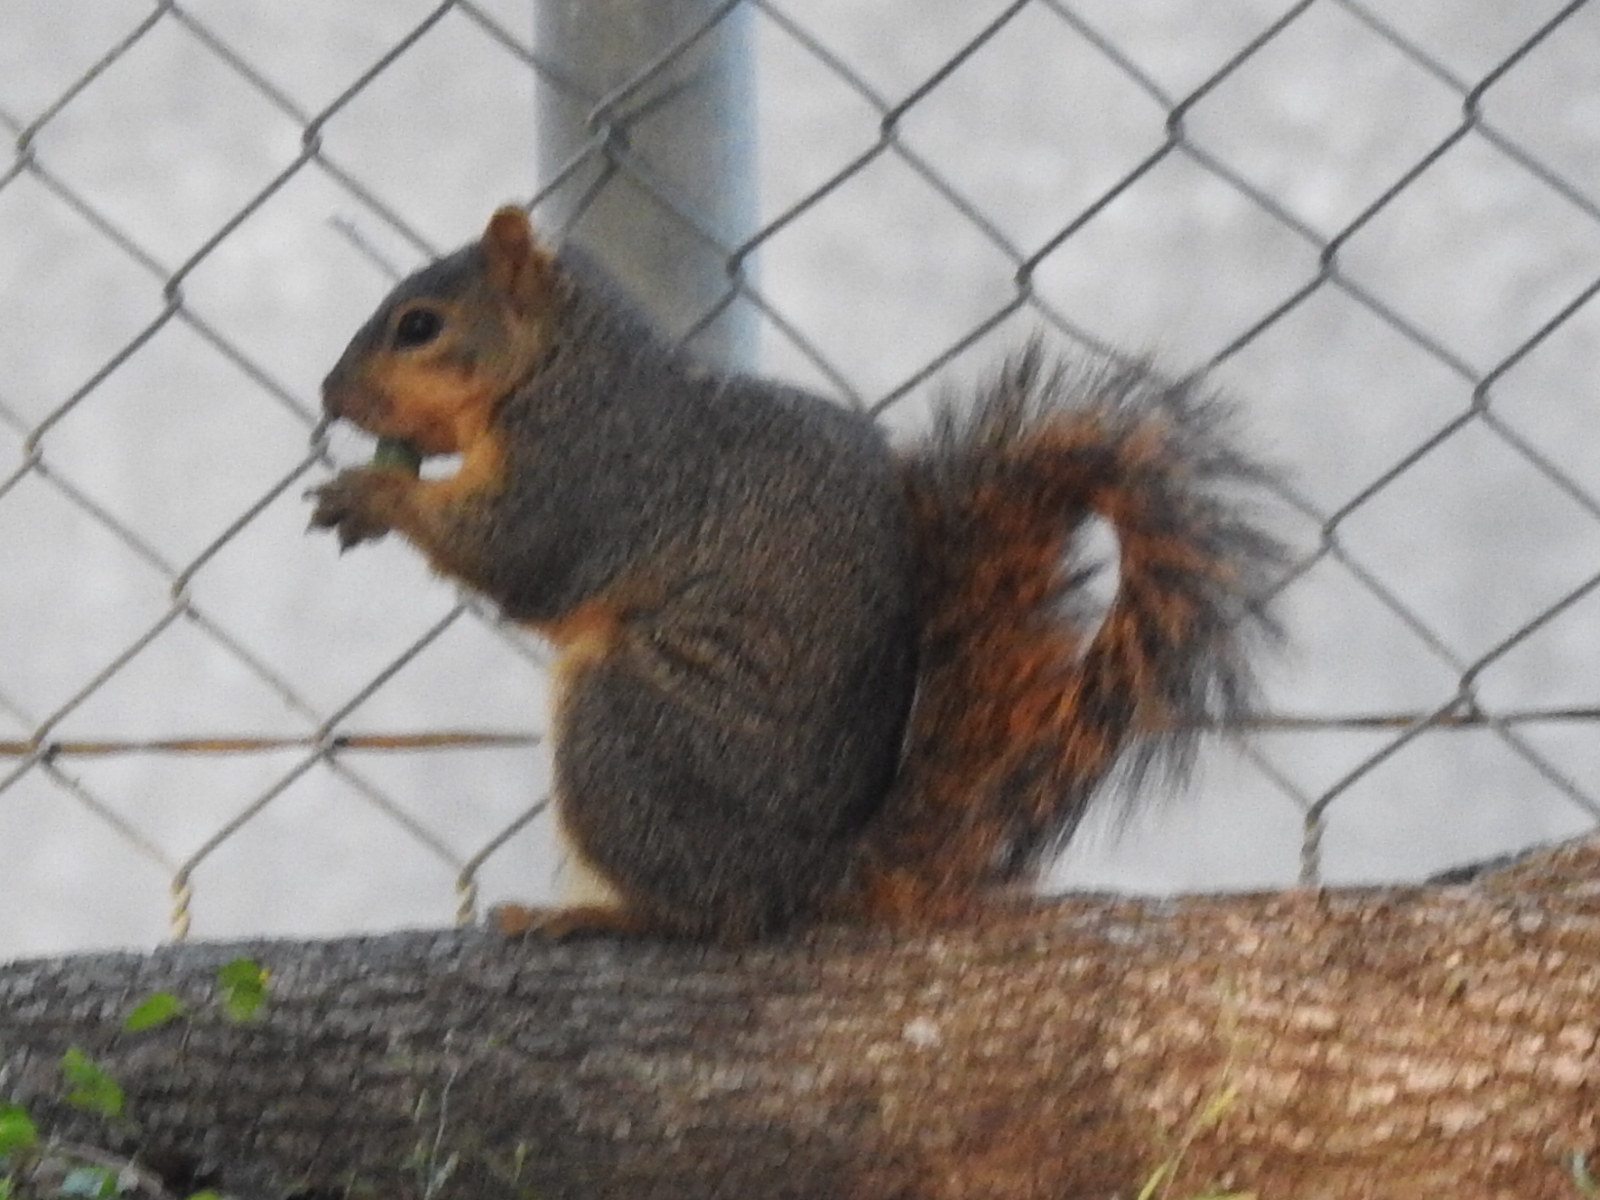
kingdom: Animalia
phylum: Chordata
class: Mammalia
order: Rodentia
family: Sciuridae
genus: Sciurus
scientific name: Sciurus niger
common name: Fox squirrel
